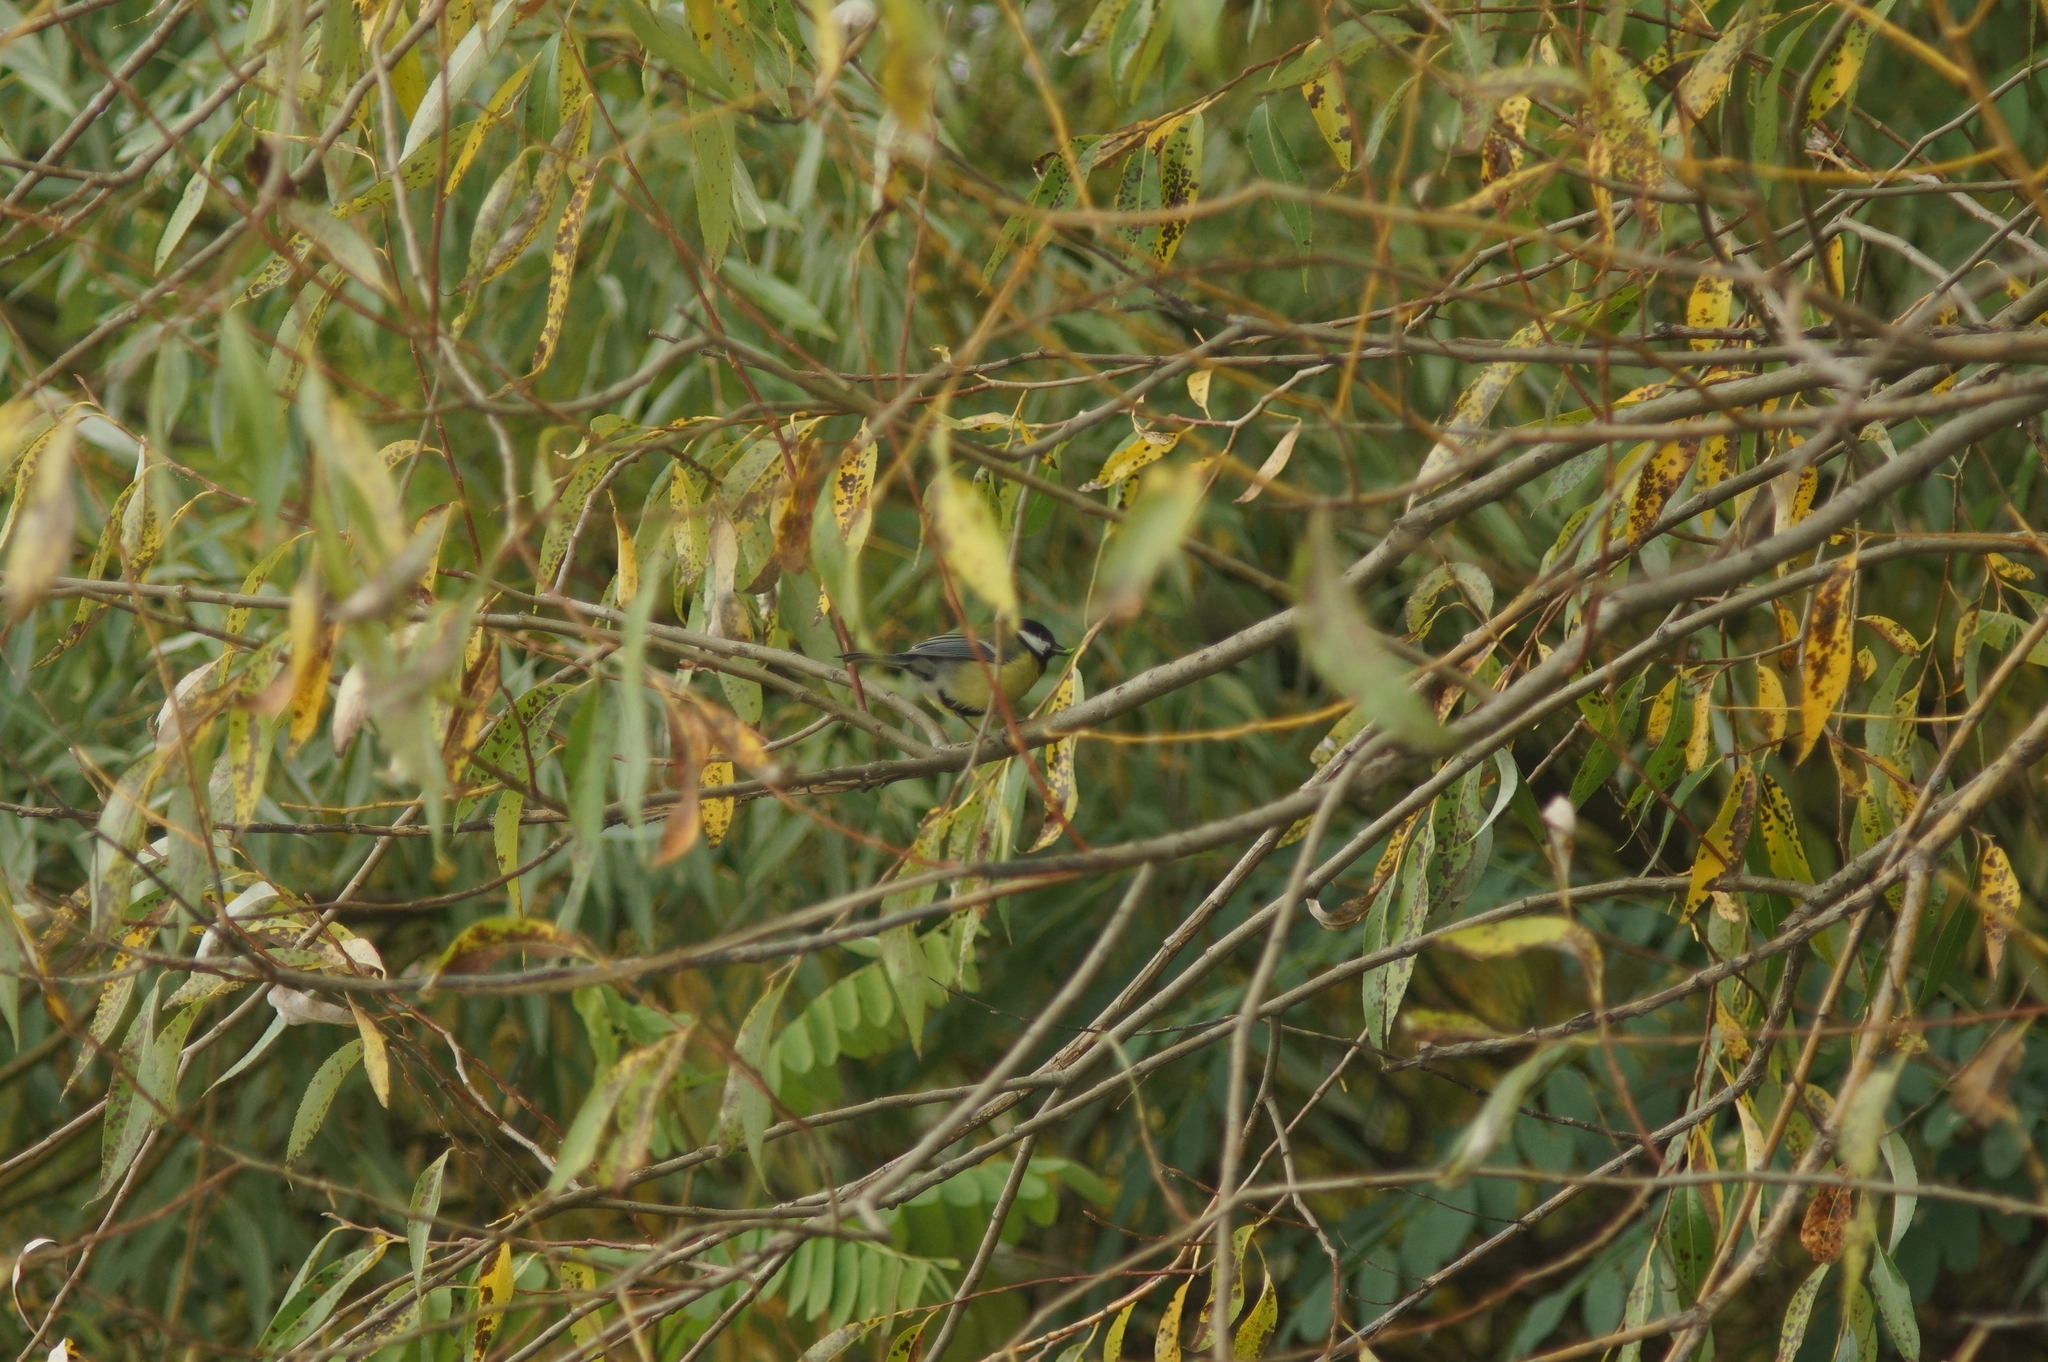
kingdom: Animalia
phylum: Chordata
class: Aves
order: Passeriformes
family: Paridae
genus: Parus
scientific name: Parus major
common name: Great tit
